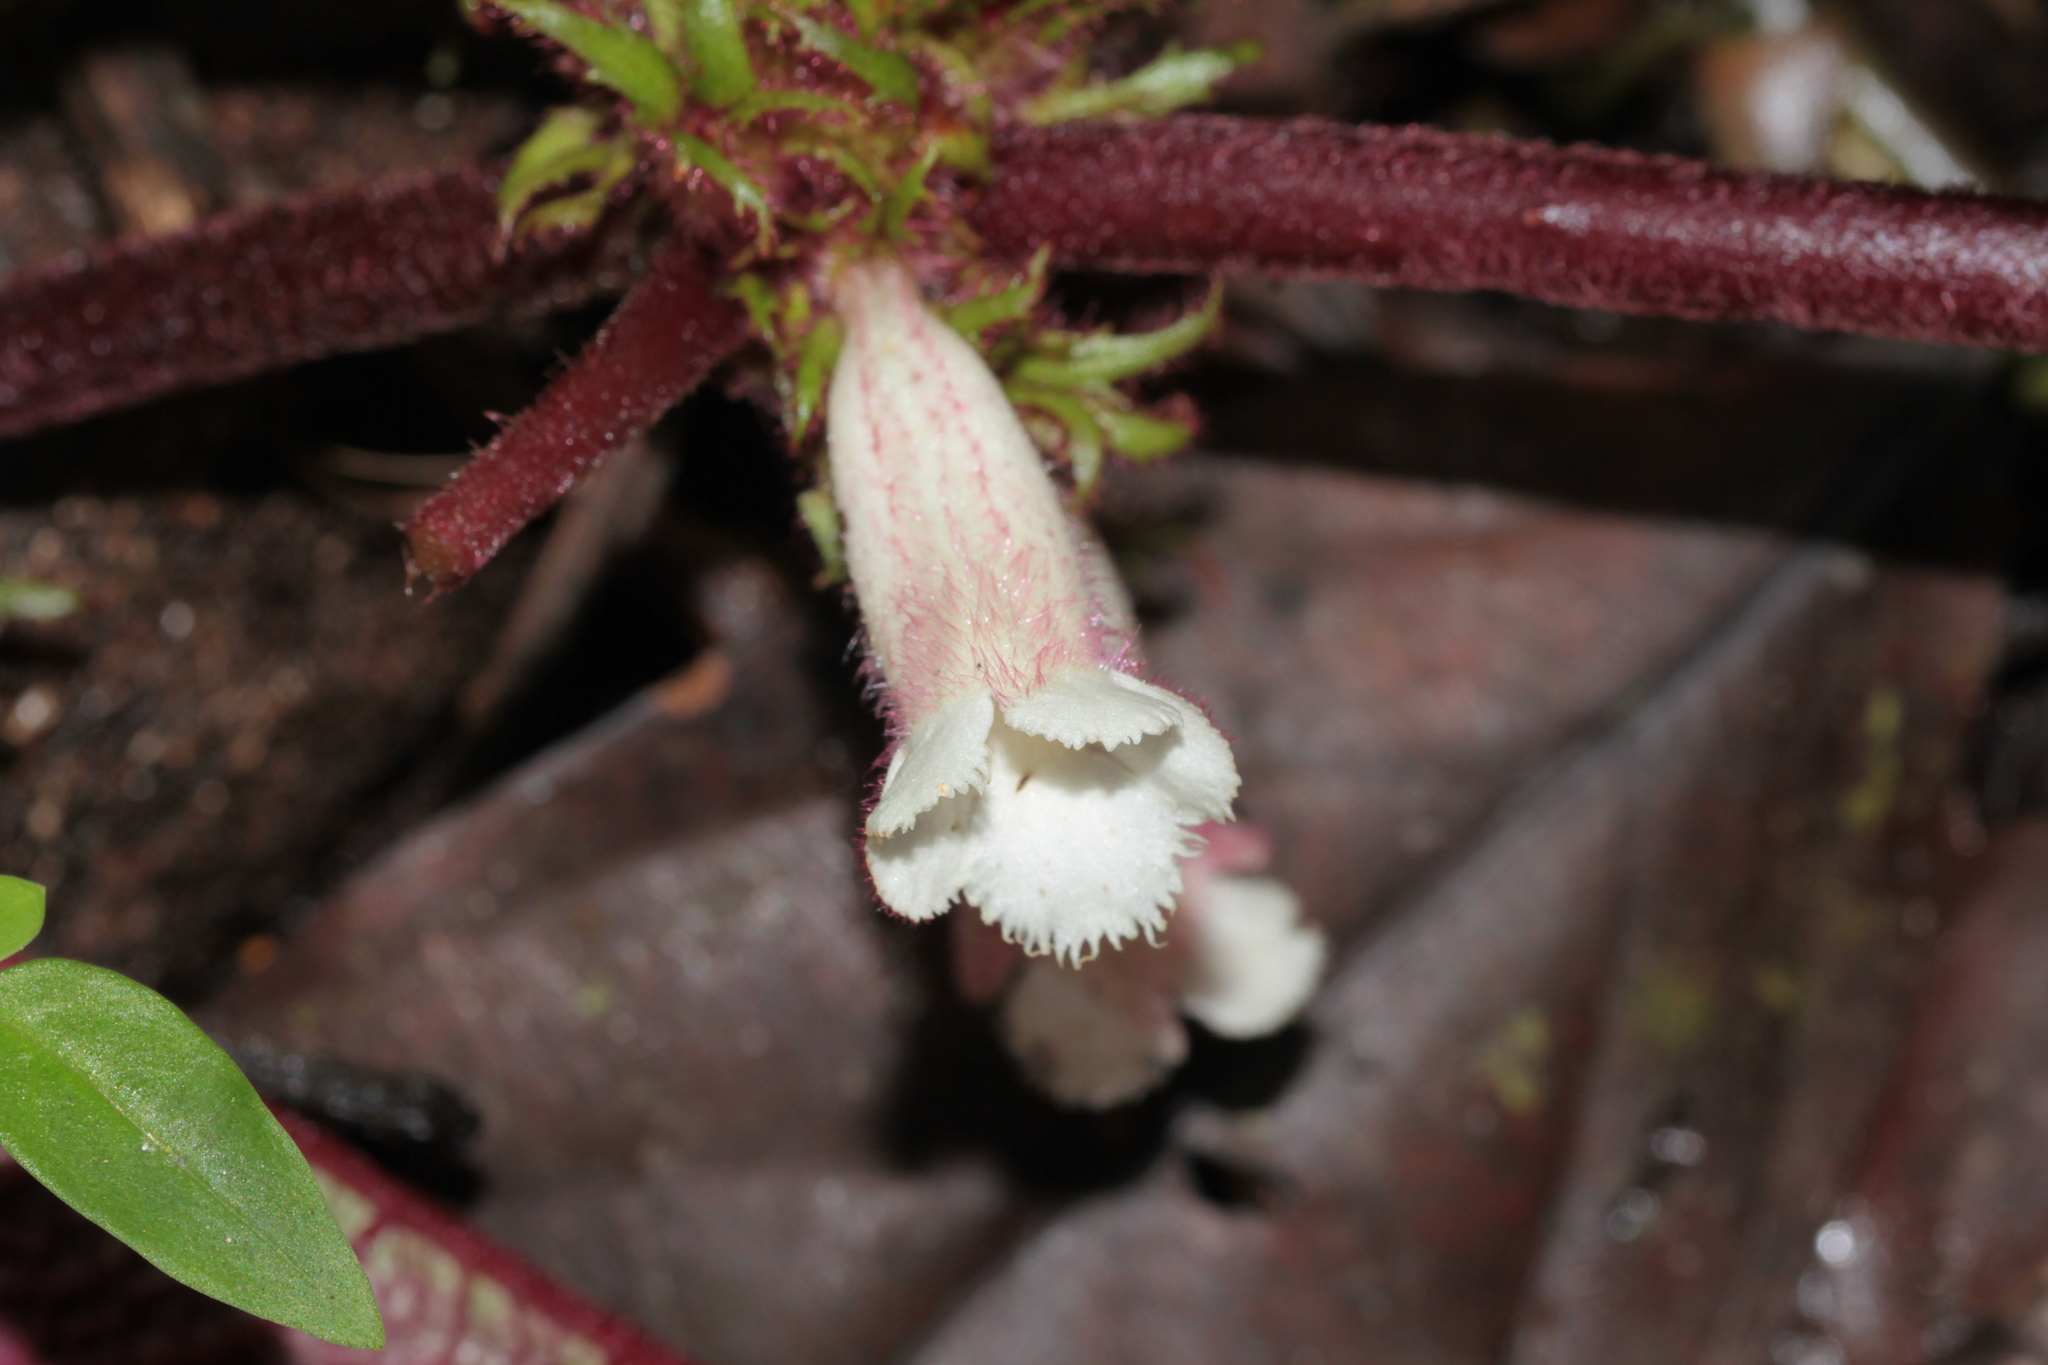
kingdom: Plantae
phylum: Tracheophyta
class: Magnoliopsida
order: Lamiales
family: Gesneriaceae
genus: Centrosolenia
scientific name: Centrosolenia picta
